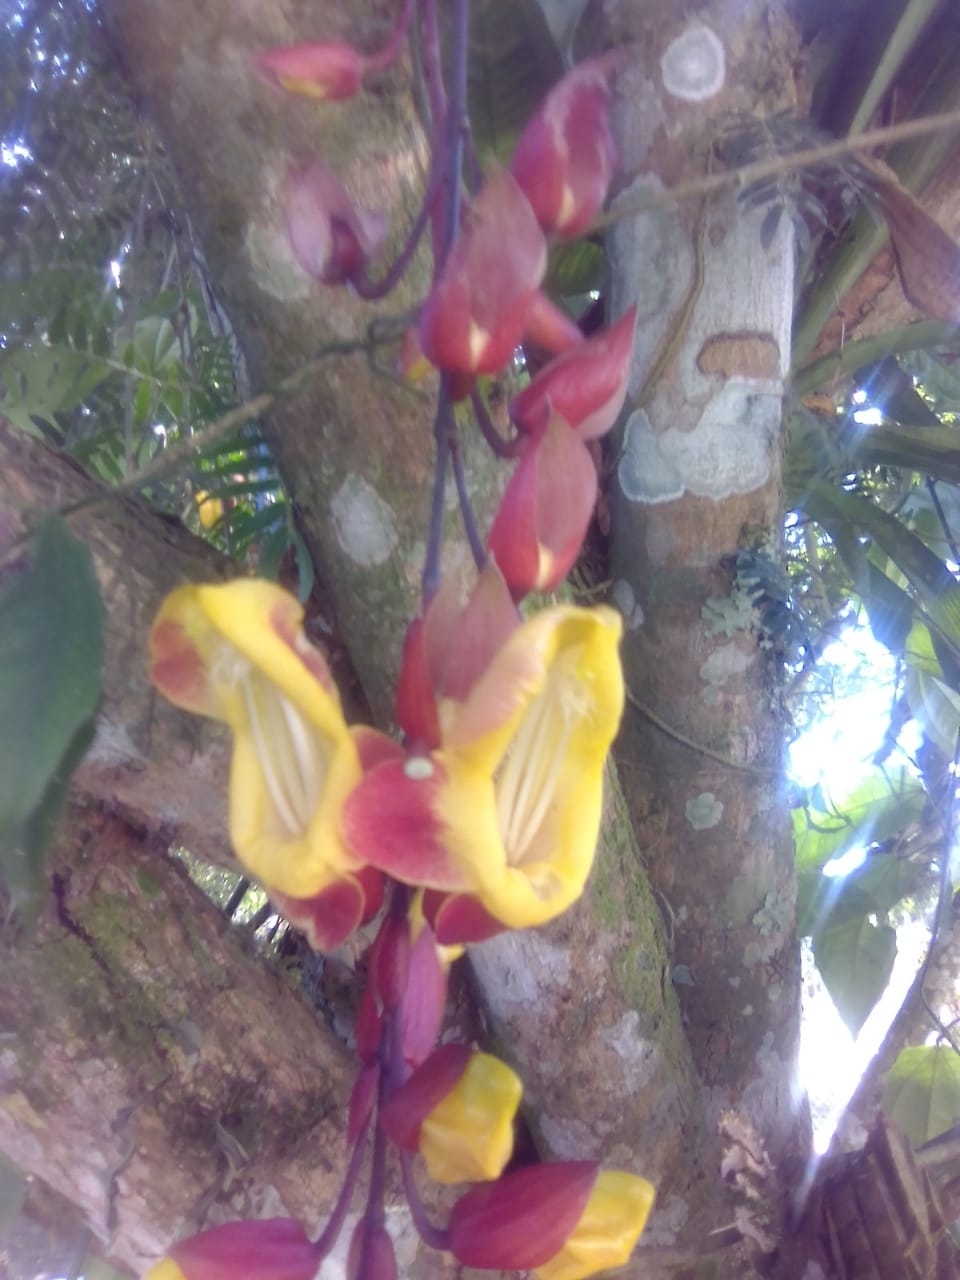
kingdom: Plantae
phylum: Tracheophyta
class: Magnoliopsida
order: Lamiales
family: Acanthaceae
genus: Thunbergia
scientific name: Thunbergia mysorensis
